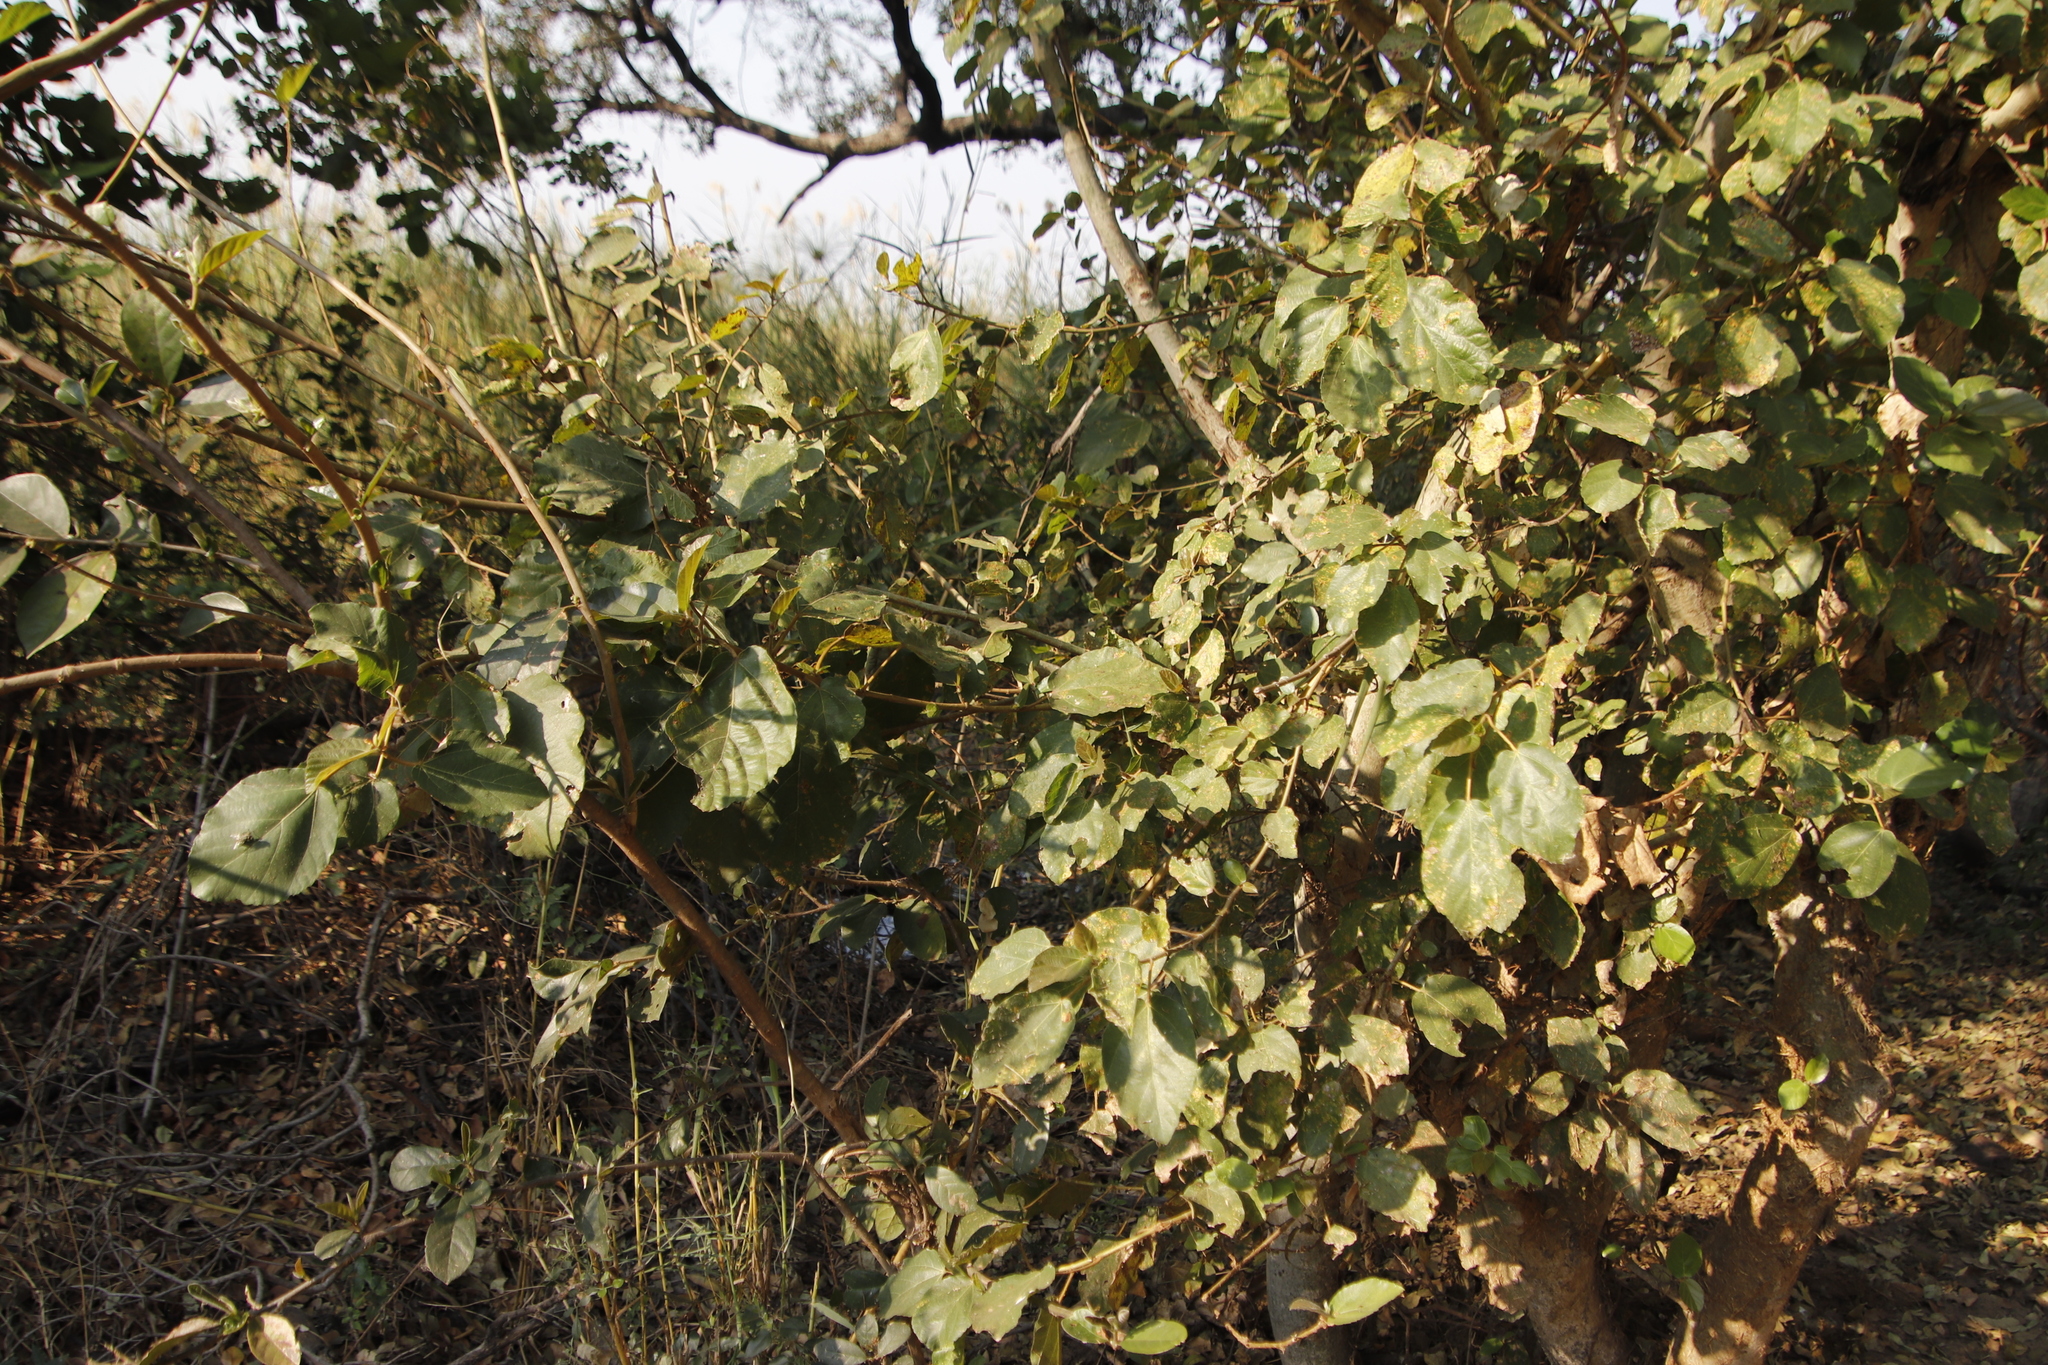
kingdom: Plantae
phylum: Tracheophyta
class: Magnoliopsida
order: Rosales
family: Moraceae
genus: Ficus
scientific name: Ficus sycomorus
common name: Sycomore
